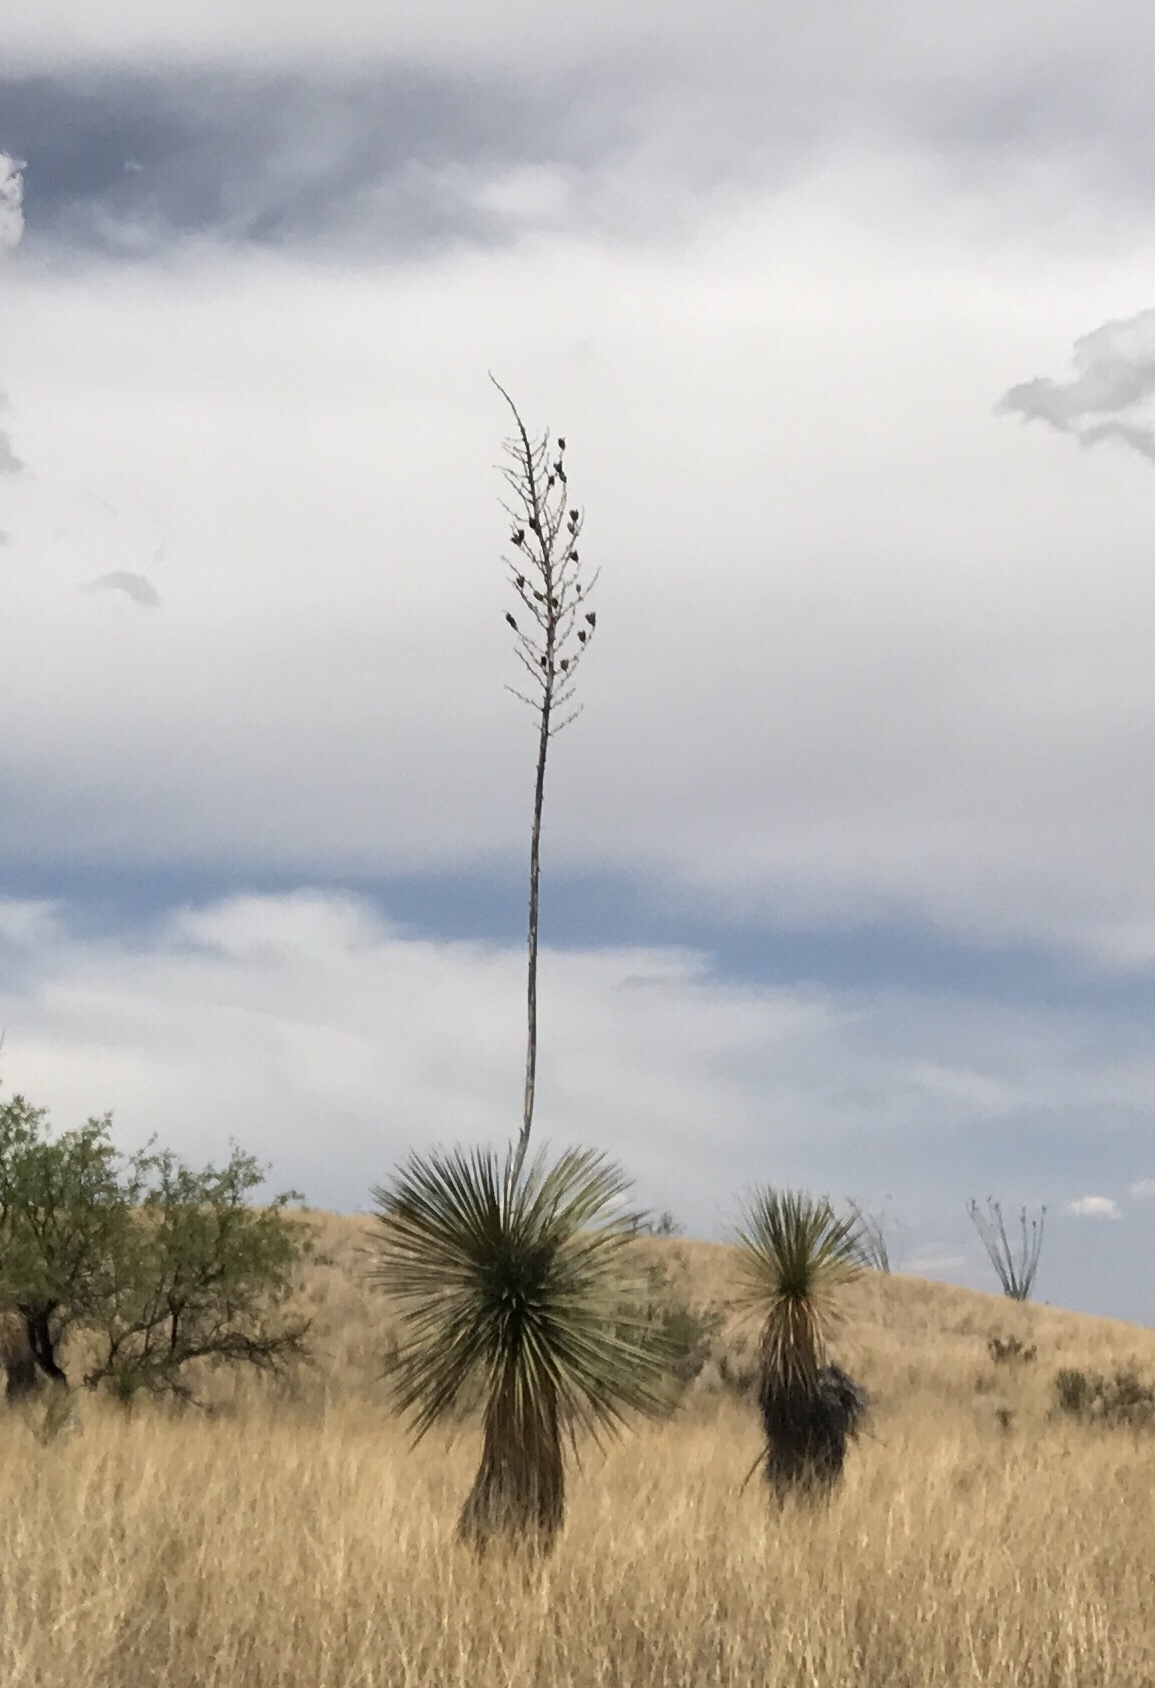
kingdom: Plantae
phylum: Tracheophyta
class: Liliopsida
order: Asparagales
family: Asparagaceae
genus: Dasylirion
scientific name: Dasylirion wheeleri
